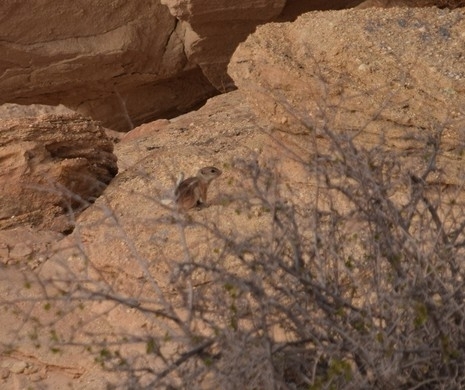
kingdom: Animalia
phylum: Chordata
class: Mammalia
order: Rodentia
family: Sciuridae
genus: Ammospermophilus
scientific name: Ammospermophilus leucurus
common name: White-tailed antelope squirrel
